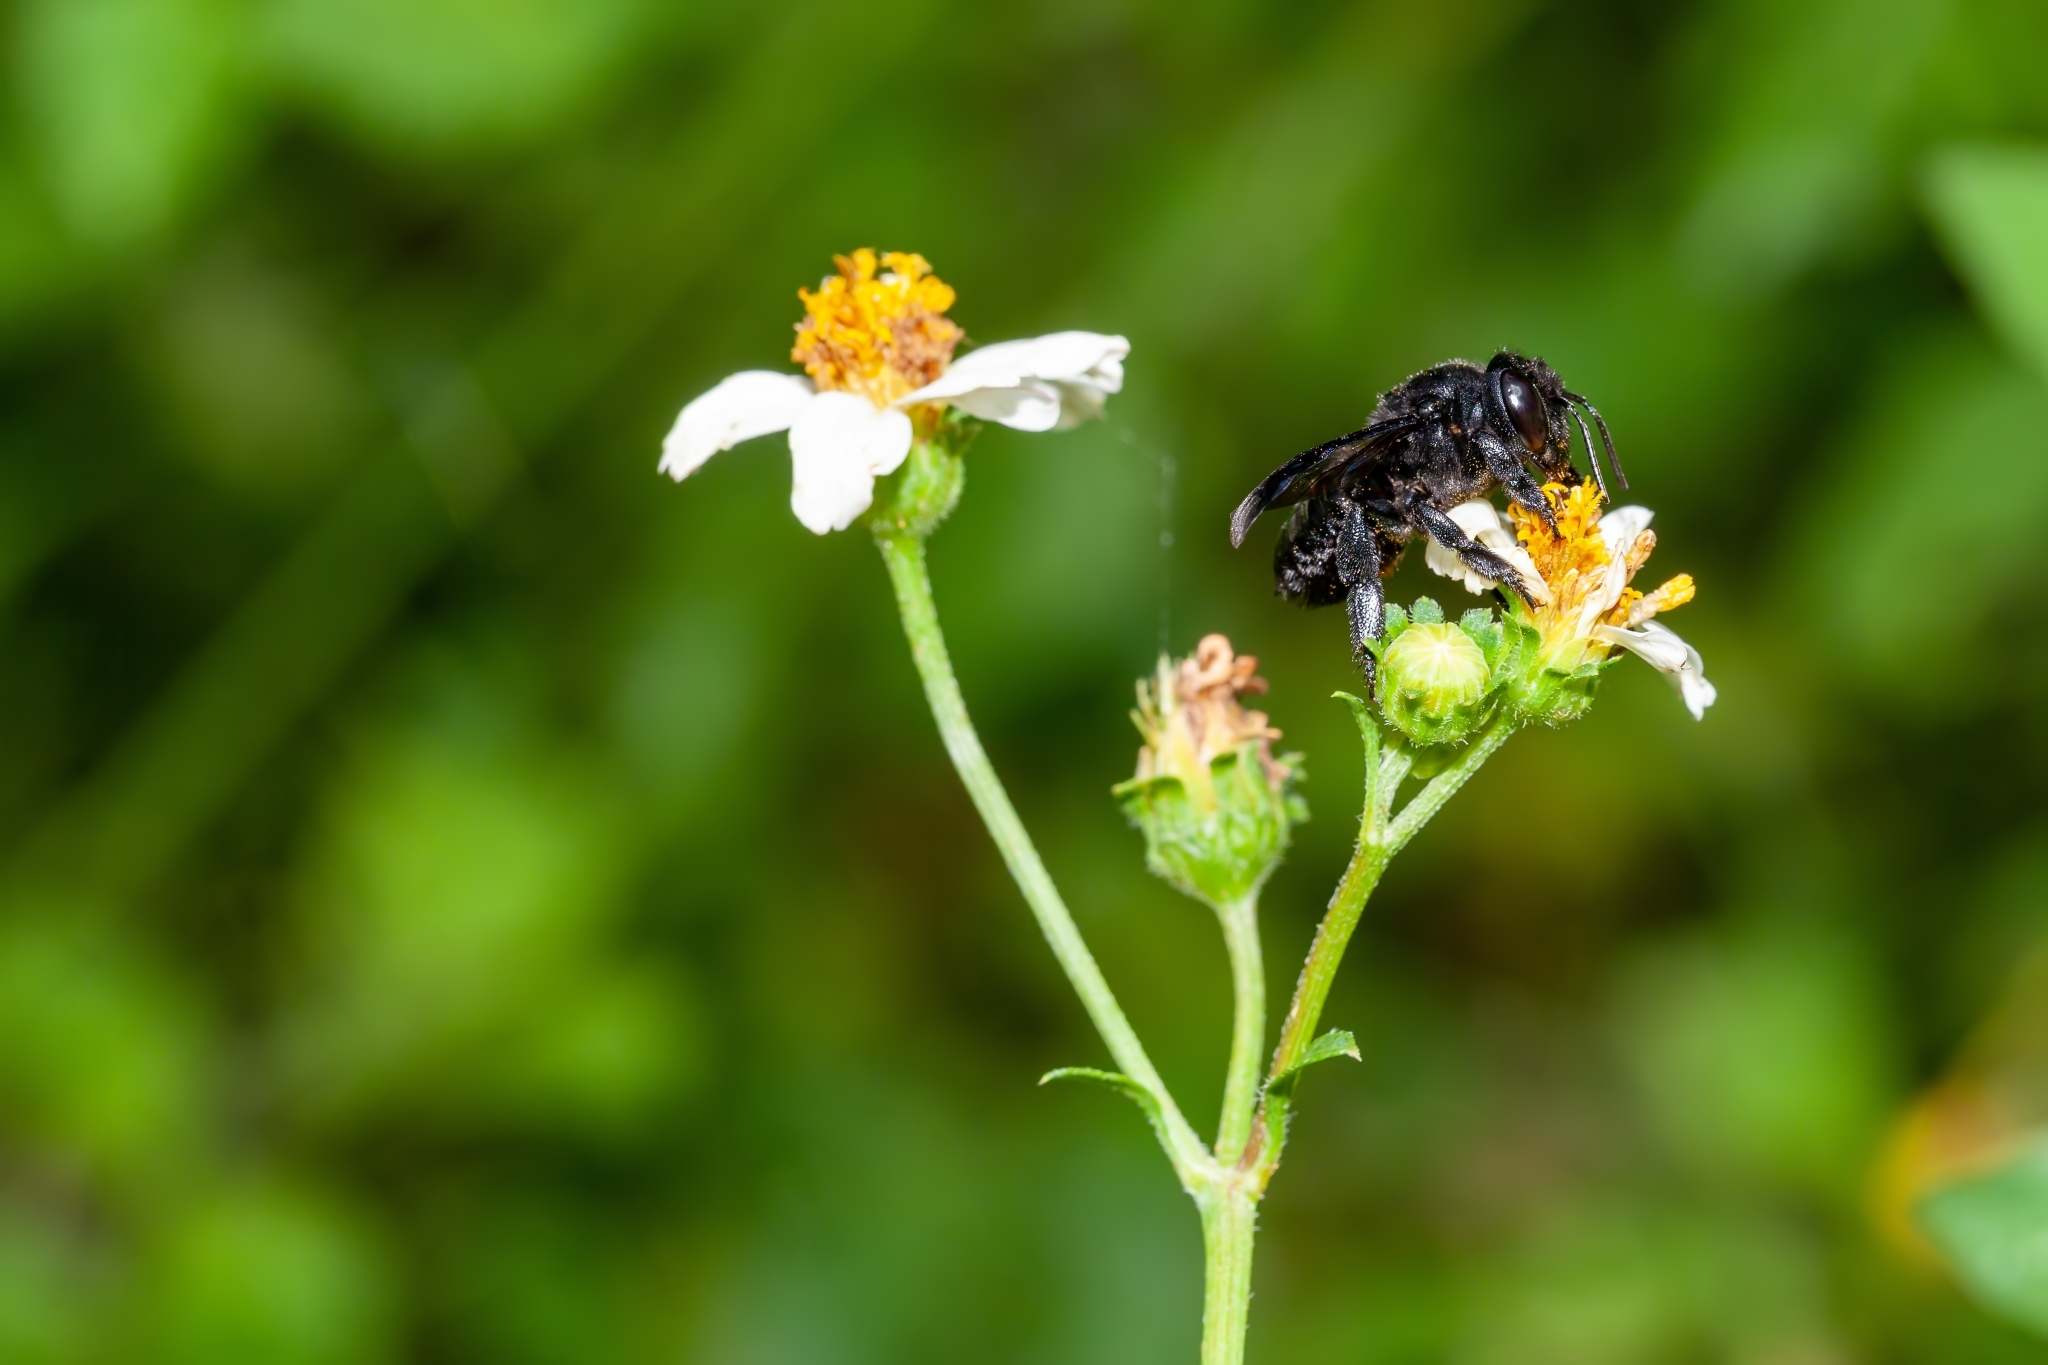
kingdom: Animalia
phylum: Arthropoda
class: Insecta
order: Hymenoptera
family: Megachilidae
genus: Megachile
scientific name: Megachile xylocopoides
